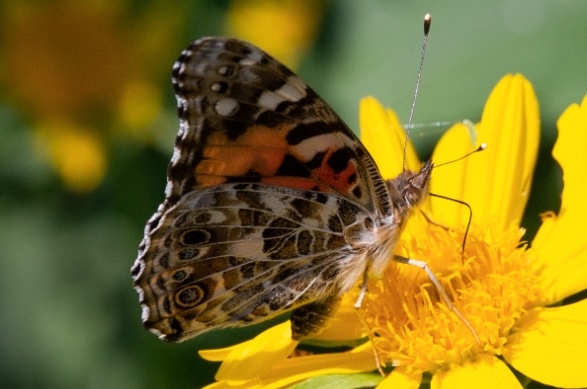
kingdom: Animalia
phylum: Arthropoda
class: Insecta
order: Lepidoptera
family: Nymphalidae
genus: Vanessa
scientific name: Vanessa cardui
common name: Painted lady
